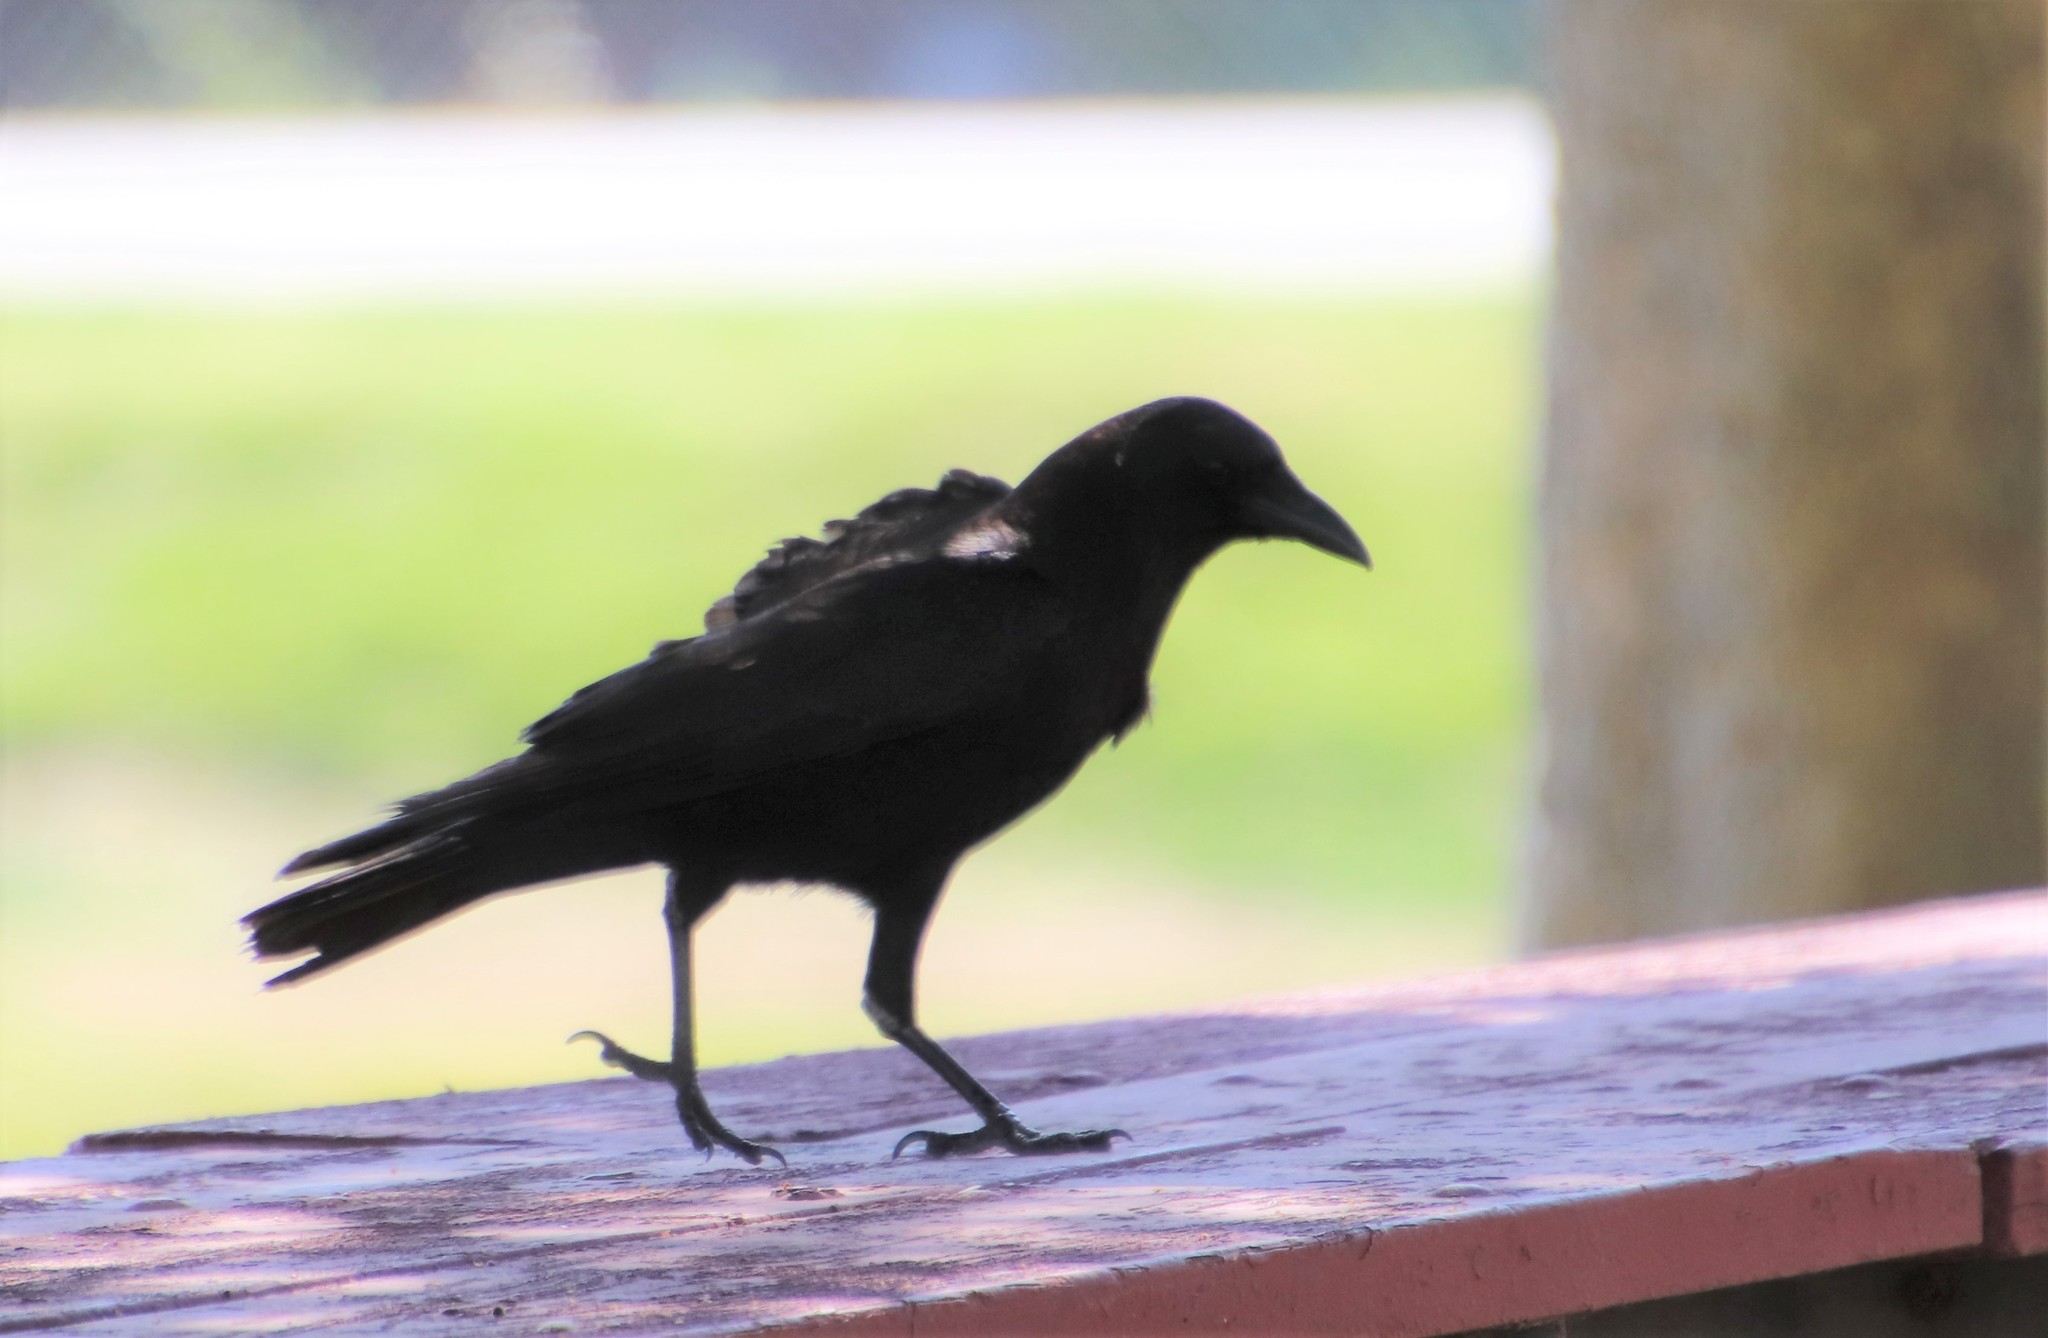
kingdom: Animalia
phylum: Chordata
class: Aves
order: Passeriformes
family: Corvidae
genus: Corvus
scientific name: Corvus brachyrhynchos
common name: American crow
